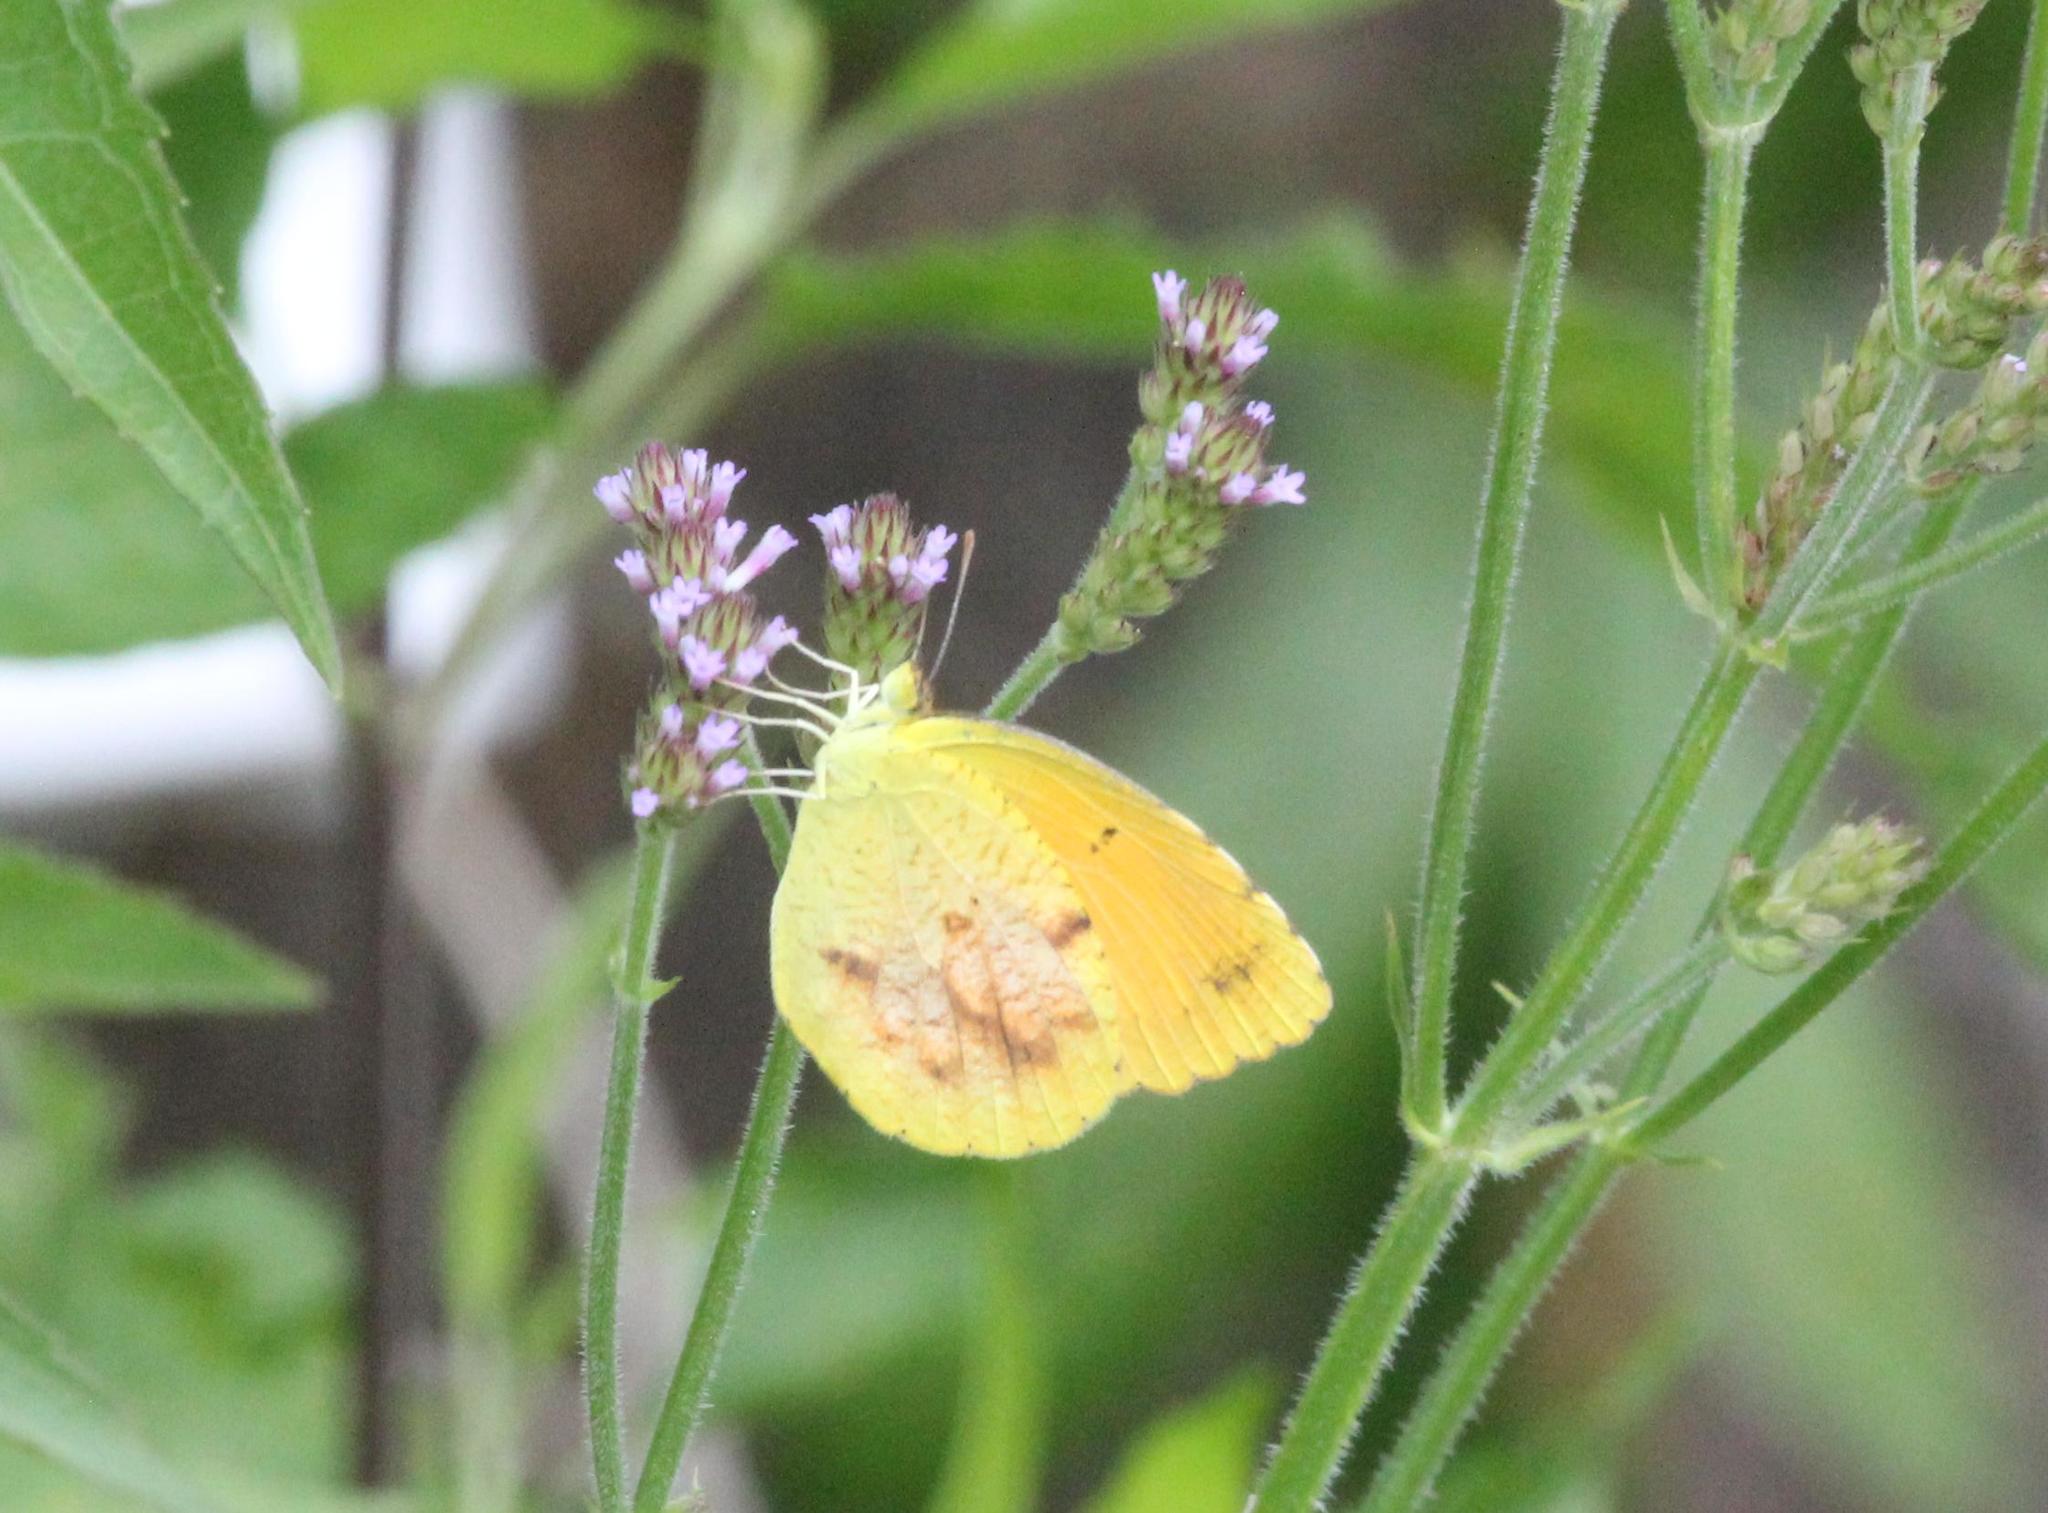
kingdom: Animalia
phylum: Arthropoda
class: Insecta
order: Lepidoptera
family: Pieridae
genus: Abaeis
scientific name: Abaeis nicippe
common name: Sleepy orange
